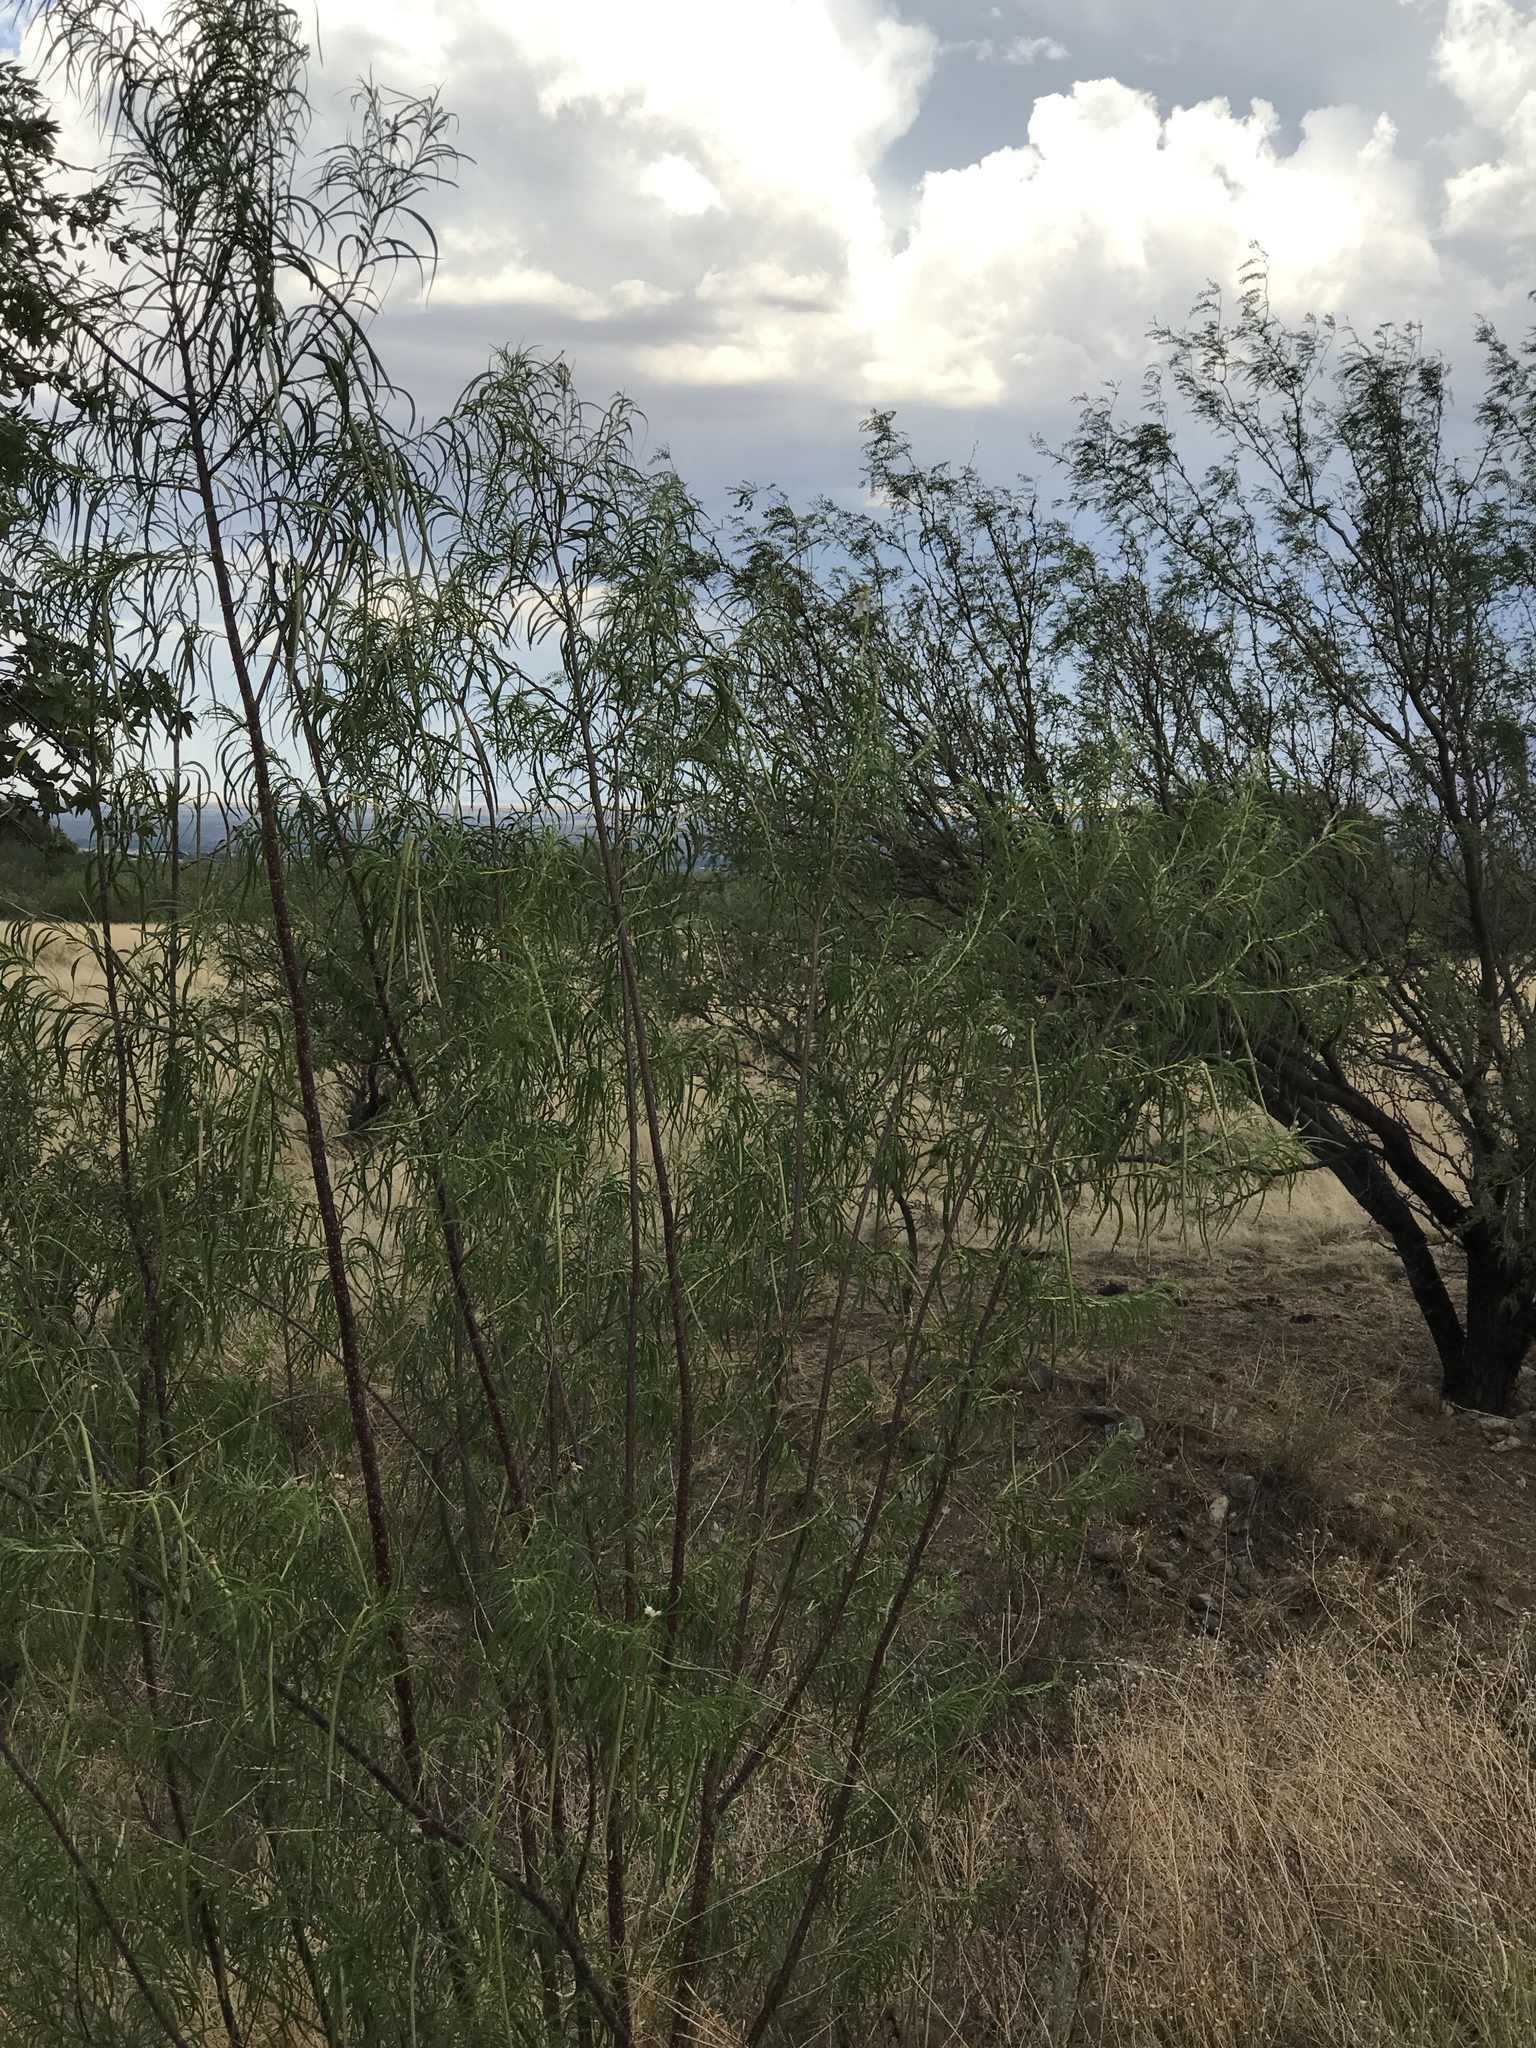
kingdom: Plantae
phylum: Tracheophyta
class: Magnoliopsida
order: Lamiales
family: Bignoniaceae
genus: Chilopsis
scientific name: Chilopsis linearis
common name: Desert-willow
